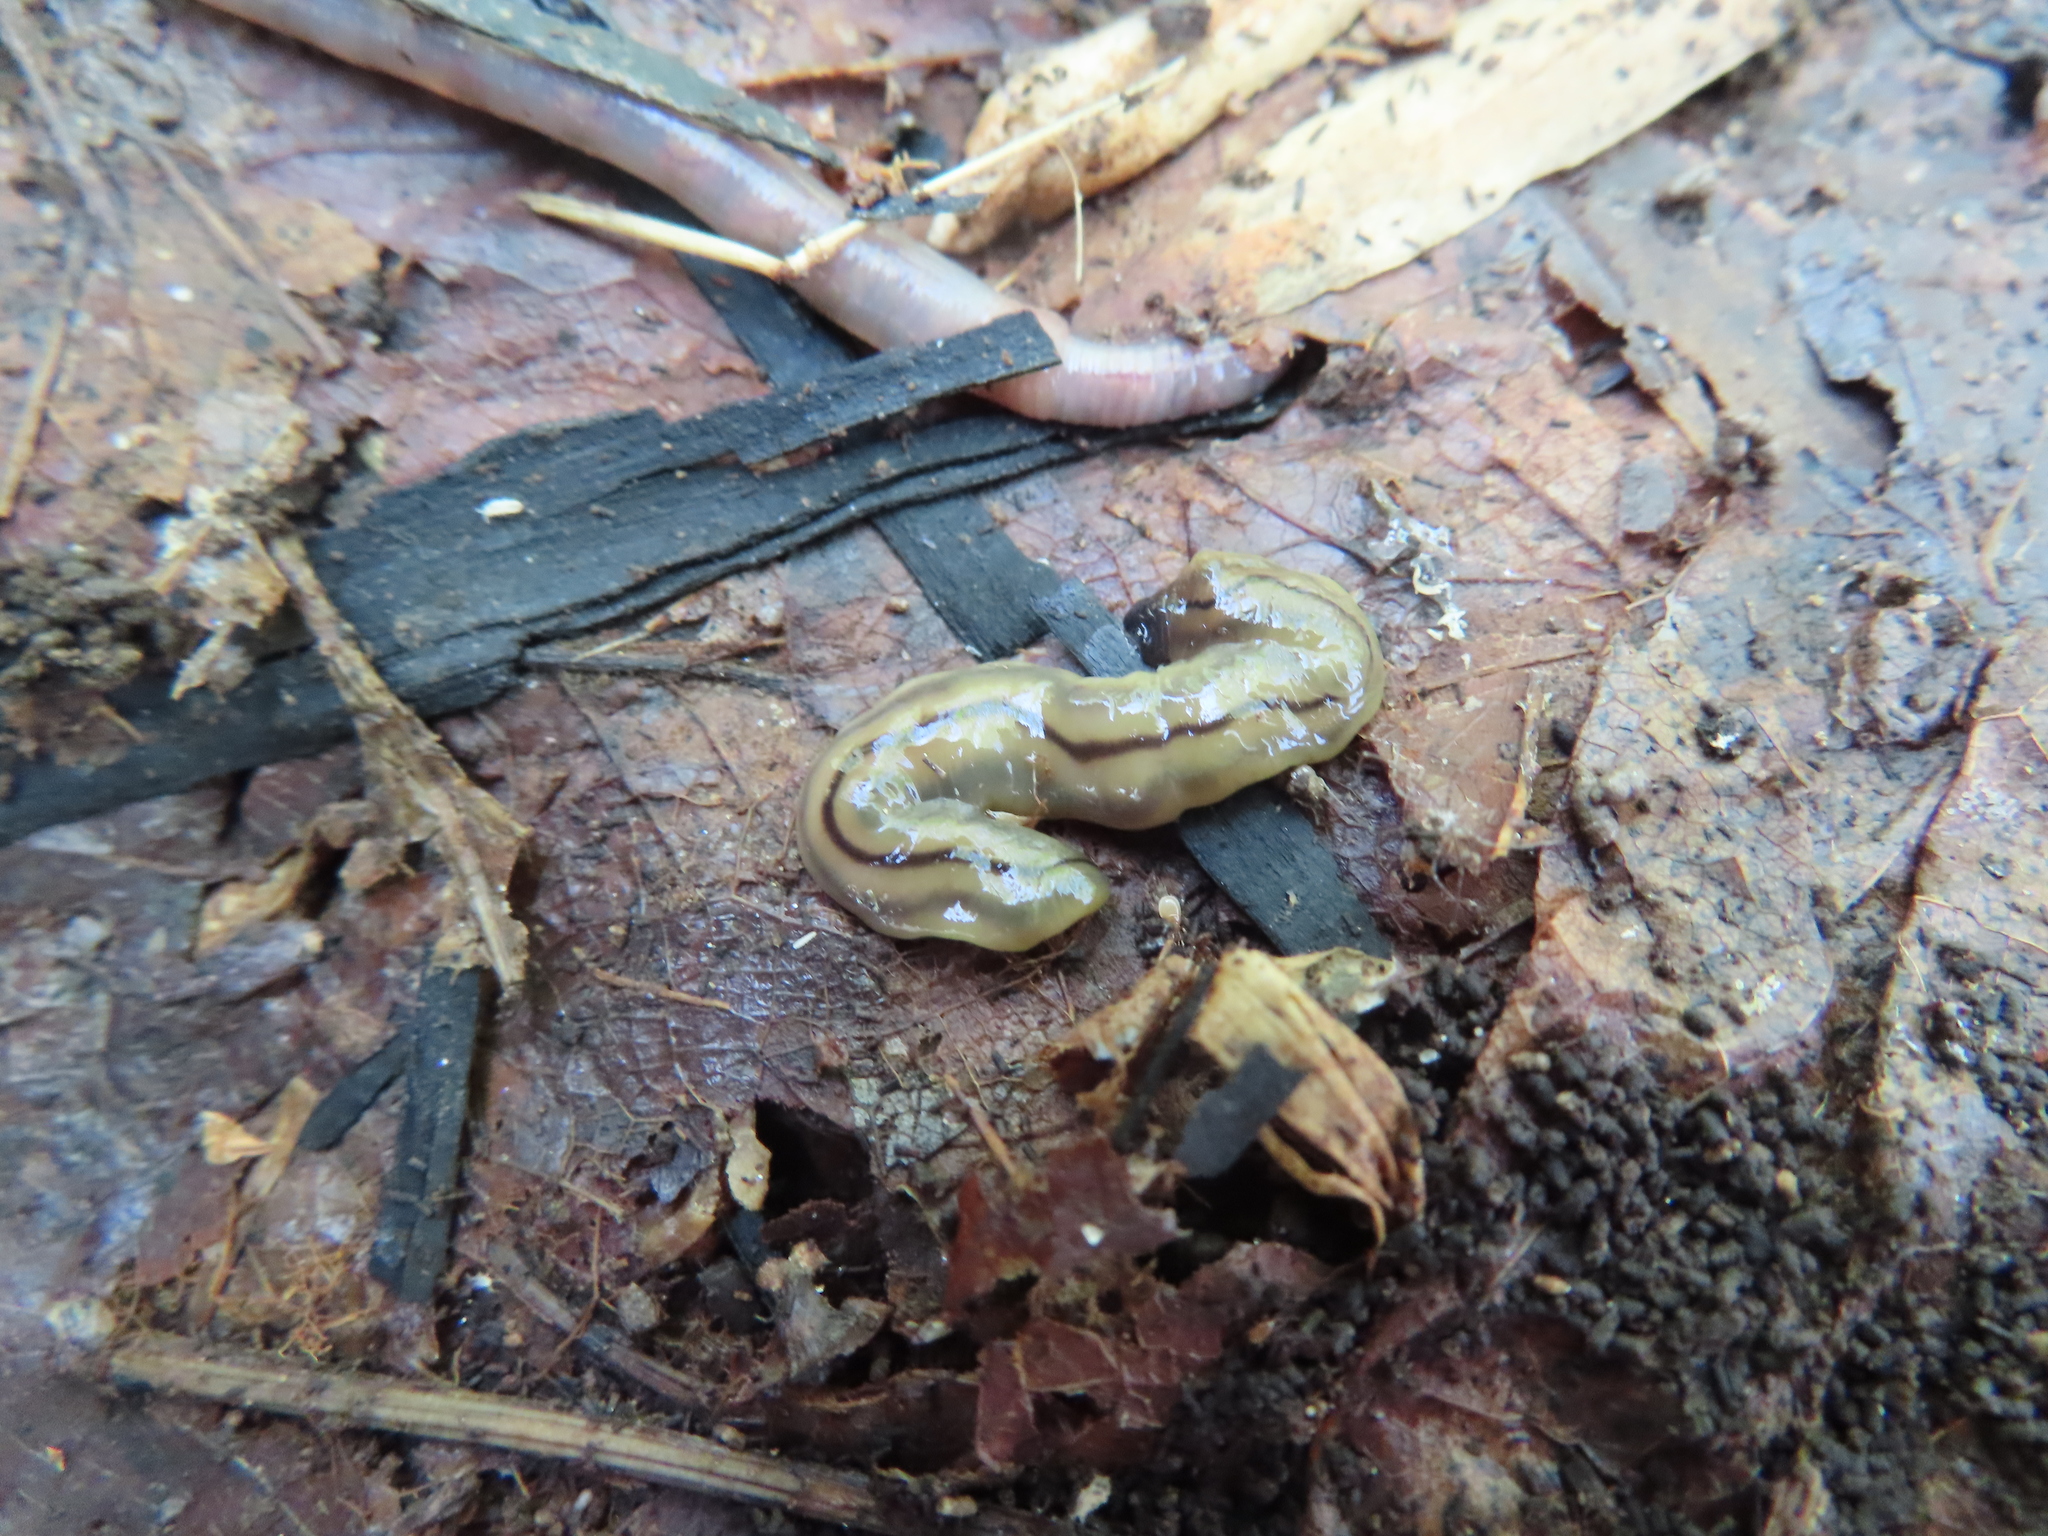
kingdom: Animalia
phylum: Platyhelminthes
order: Tricladida
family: Geoplanidae
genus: Bipalium
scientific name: Bipalium pennsylvanicum
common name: Three-lined land planarian
